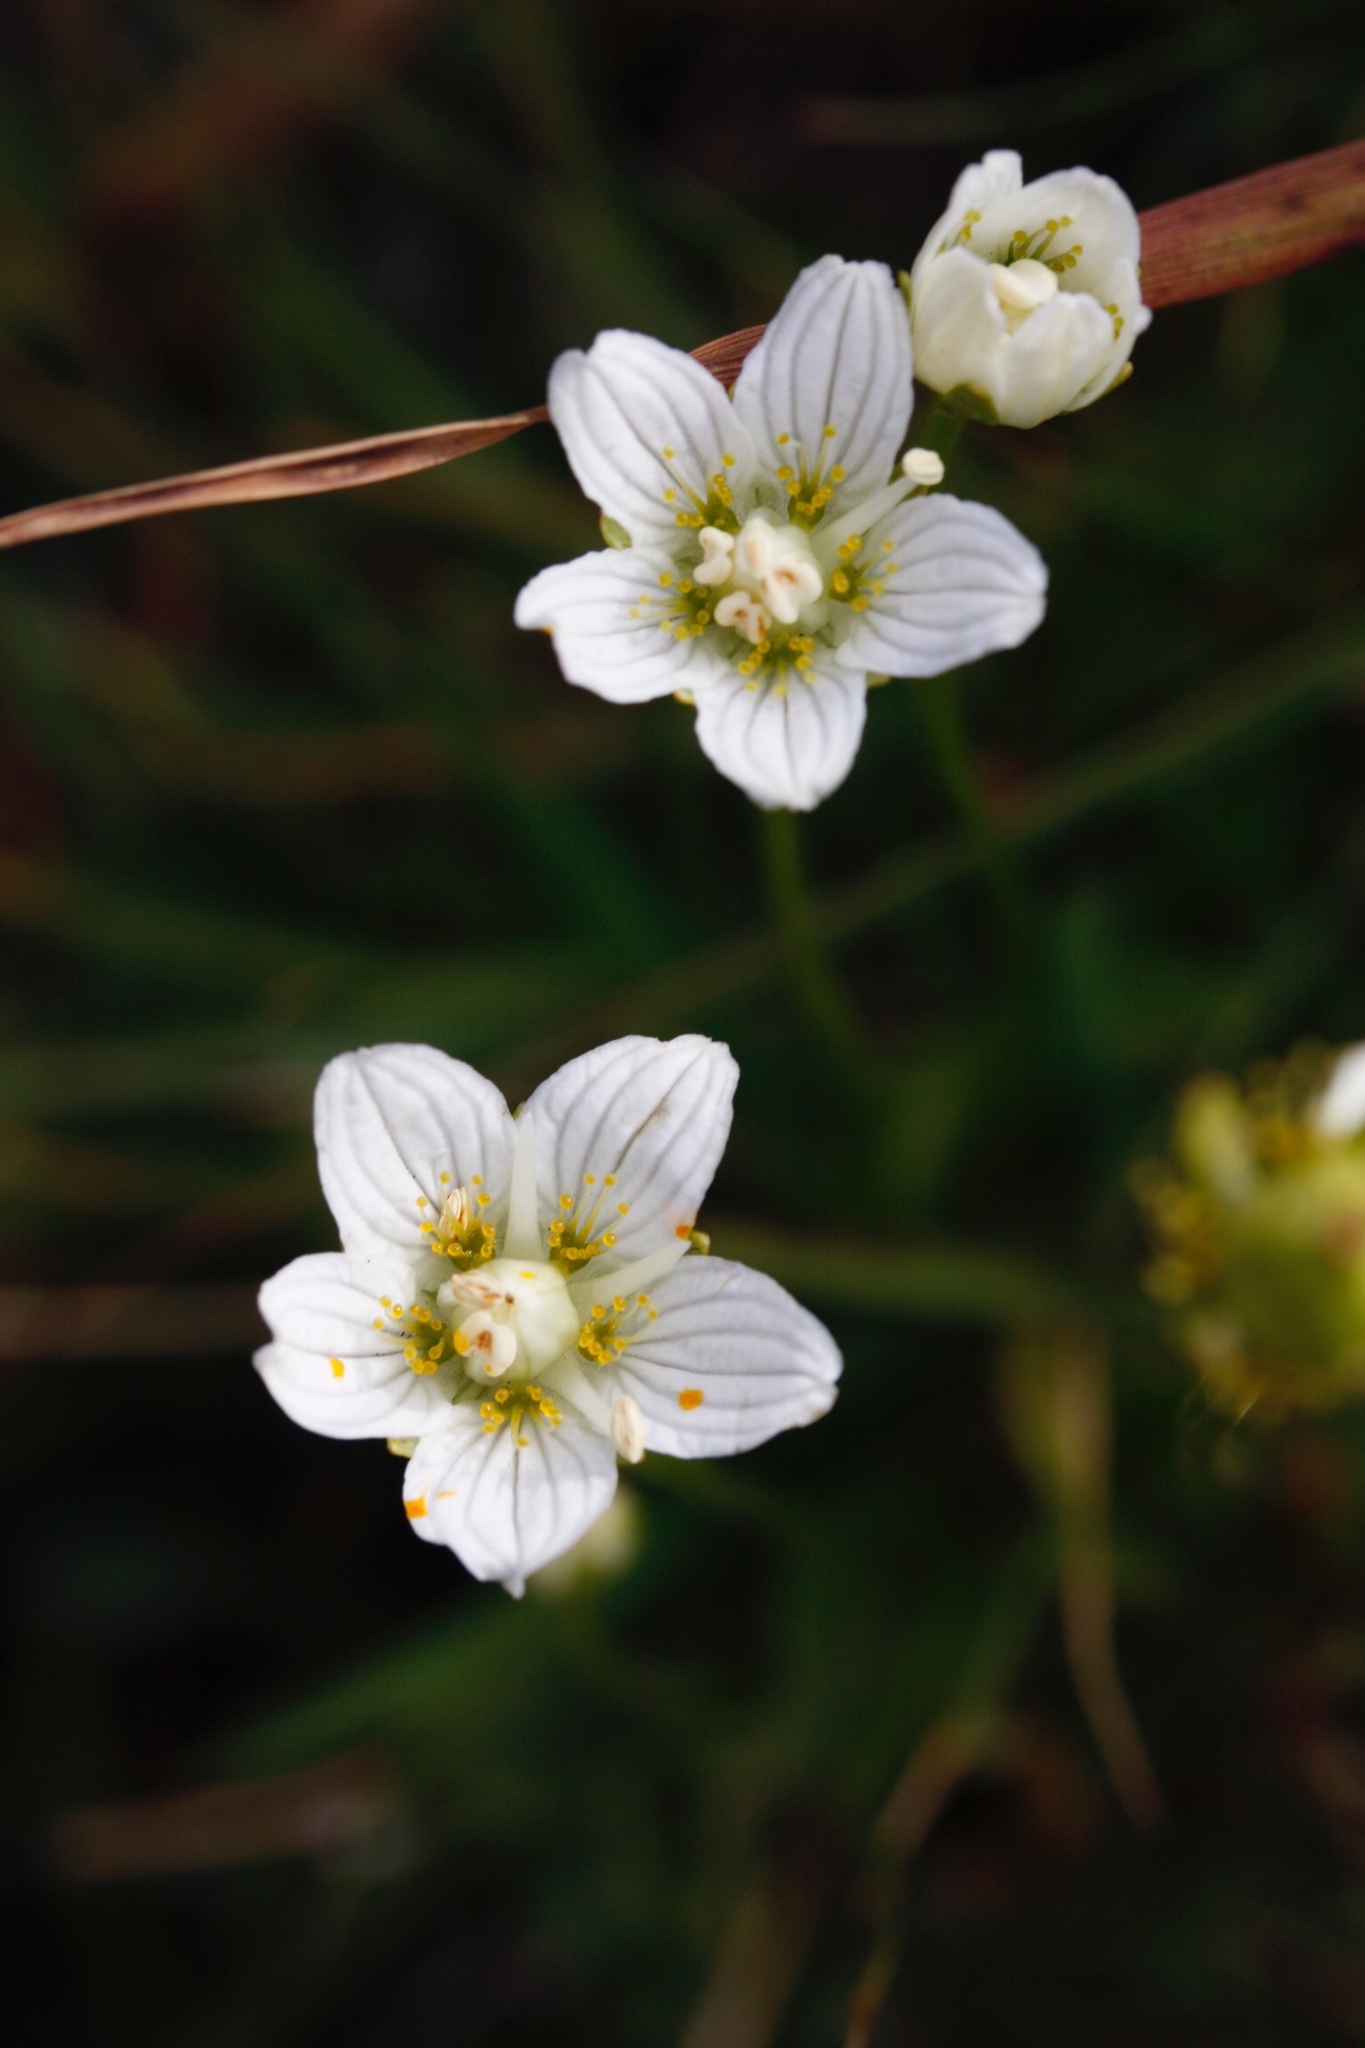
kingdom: Plantae
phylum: Tracheophyta
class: Magnoliopsida
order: Celastrales
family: Parnassiaceae
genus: Parnassia
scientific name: Parnassia palustris
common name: Grass-of-parnassus
